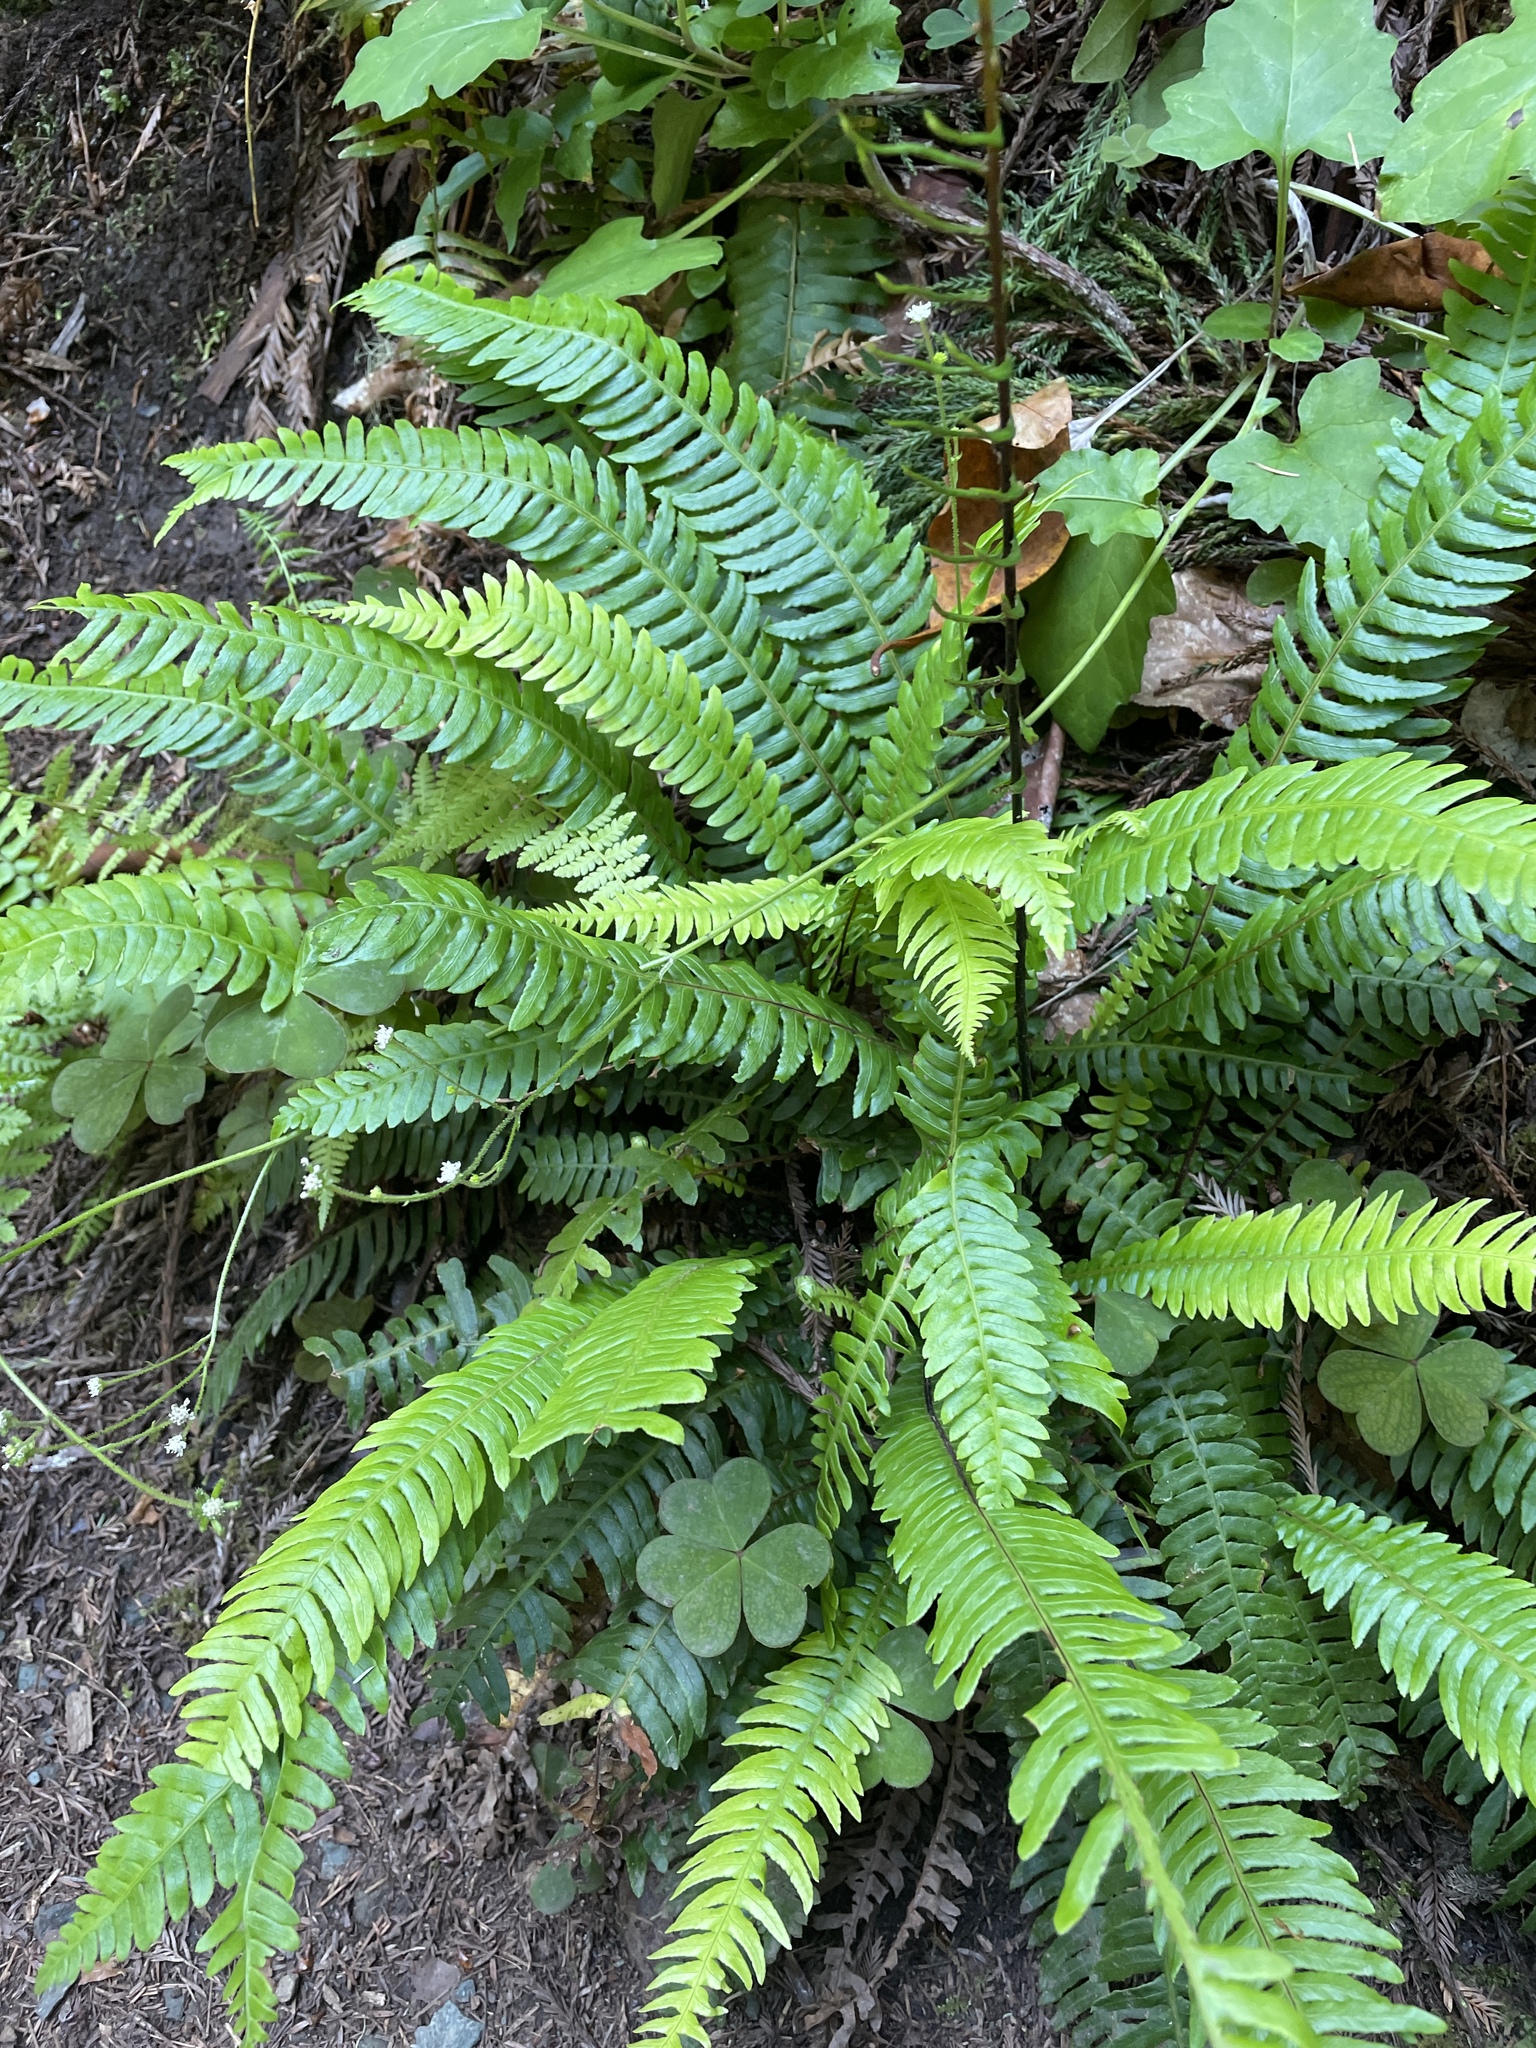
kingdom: Plantae
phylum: Tracheophyta
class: Polypodiopsida
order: Polypodiales
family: Blechnaceae
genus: Struthiopteris
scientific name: Struthiopteris spicant
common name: Deer fern
